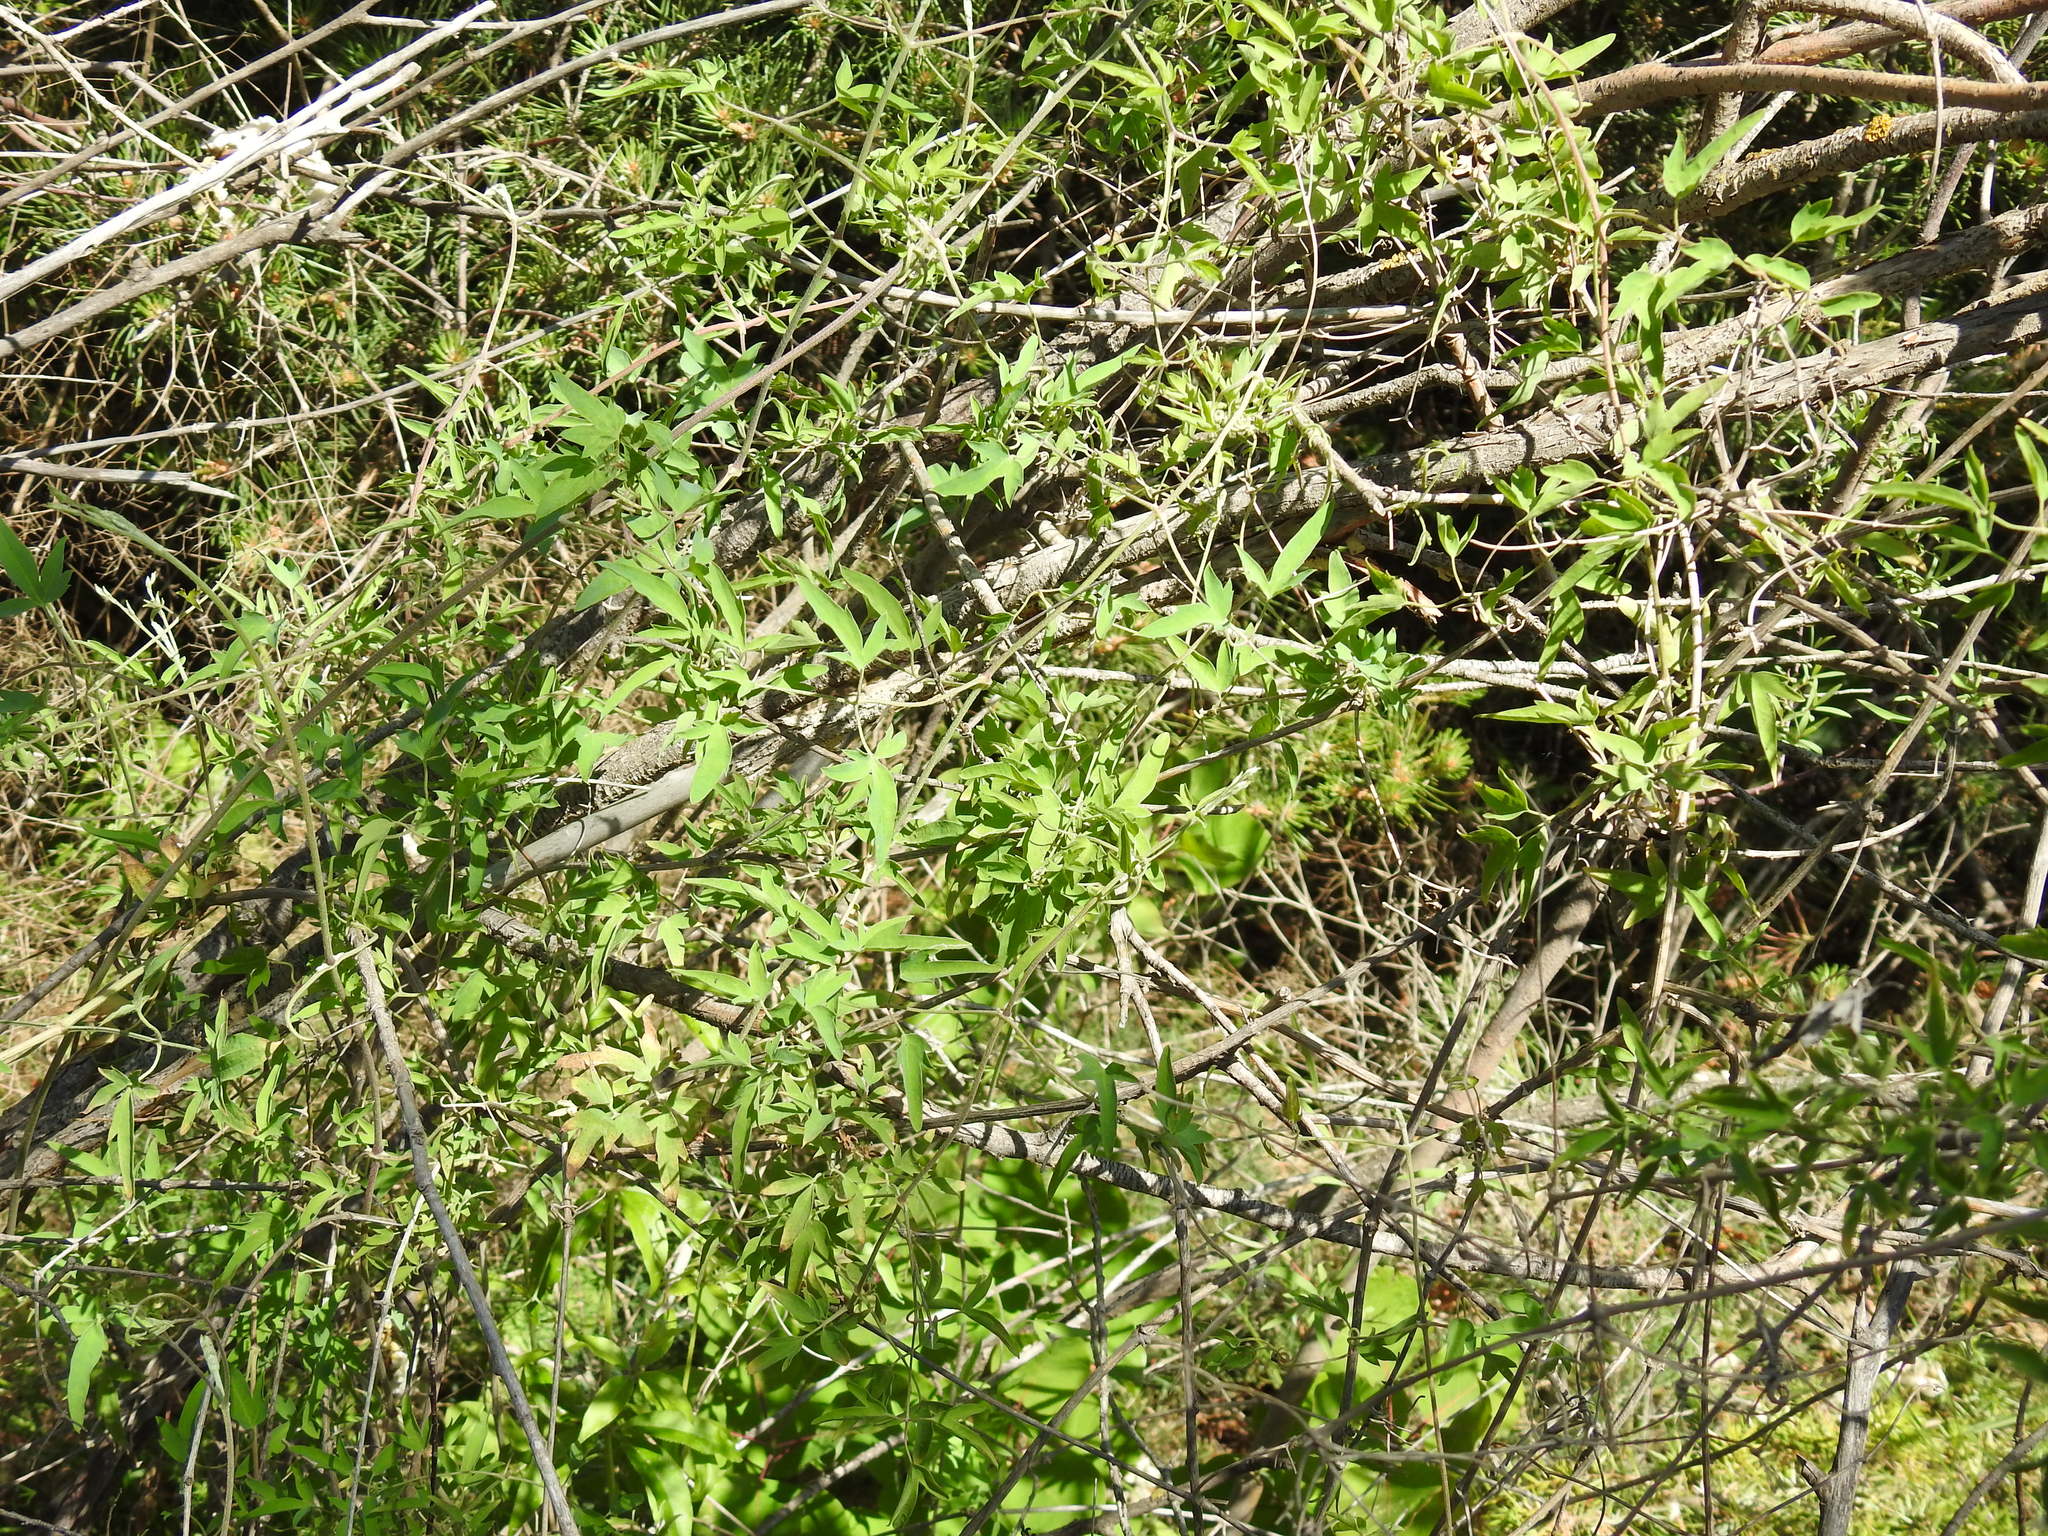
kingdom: Plantae
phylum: Tracheophyta
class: Magnoliopsida
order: Ranunculales
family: Ranunculaceae
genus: Clematis
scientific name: Clematis orientalis
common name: Oriental virgin's-bower
